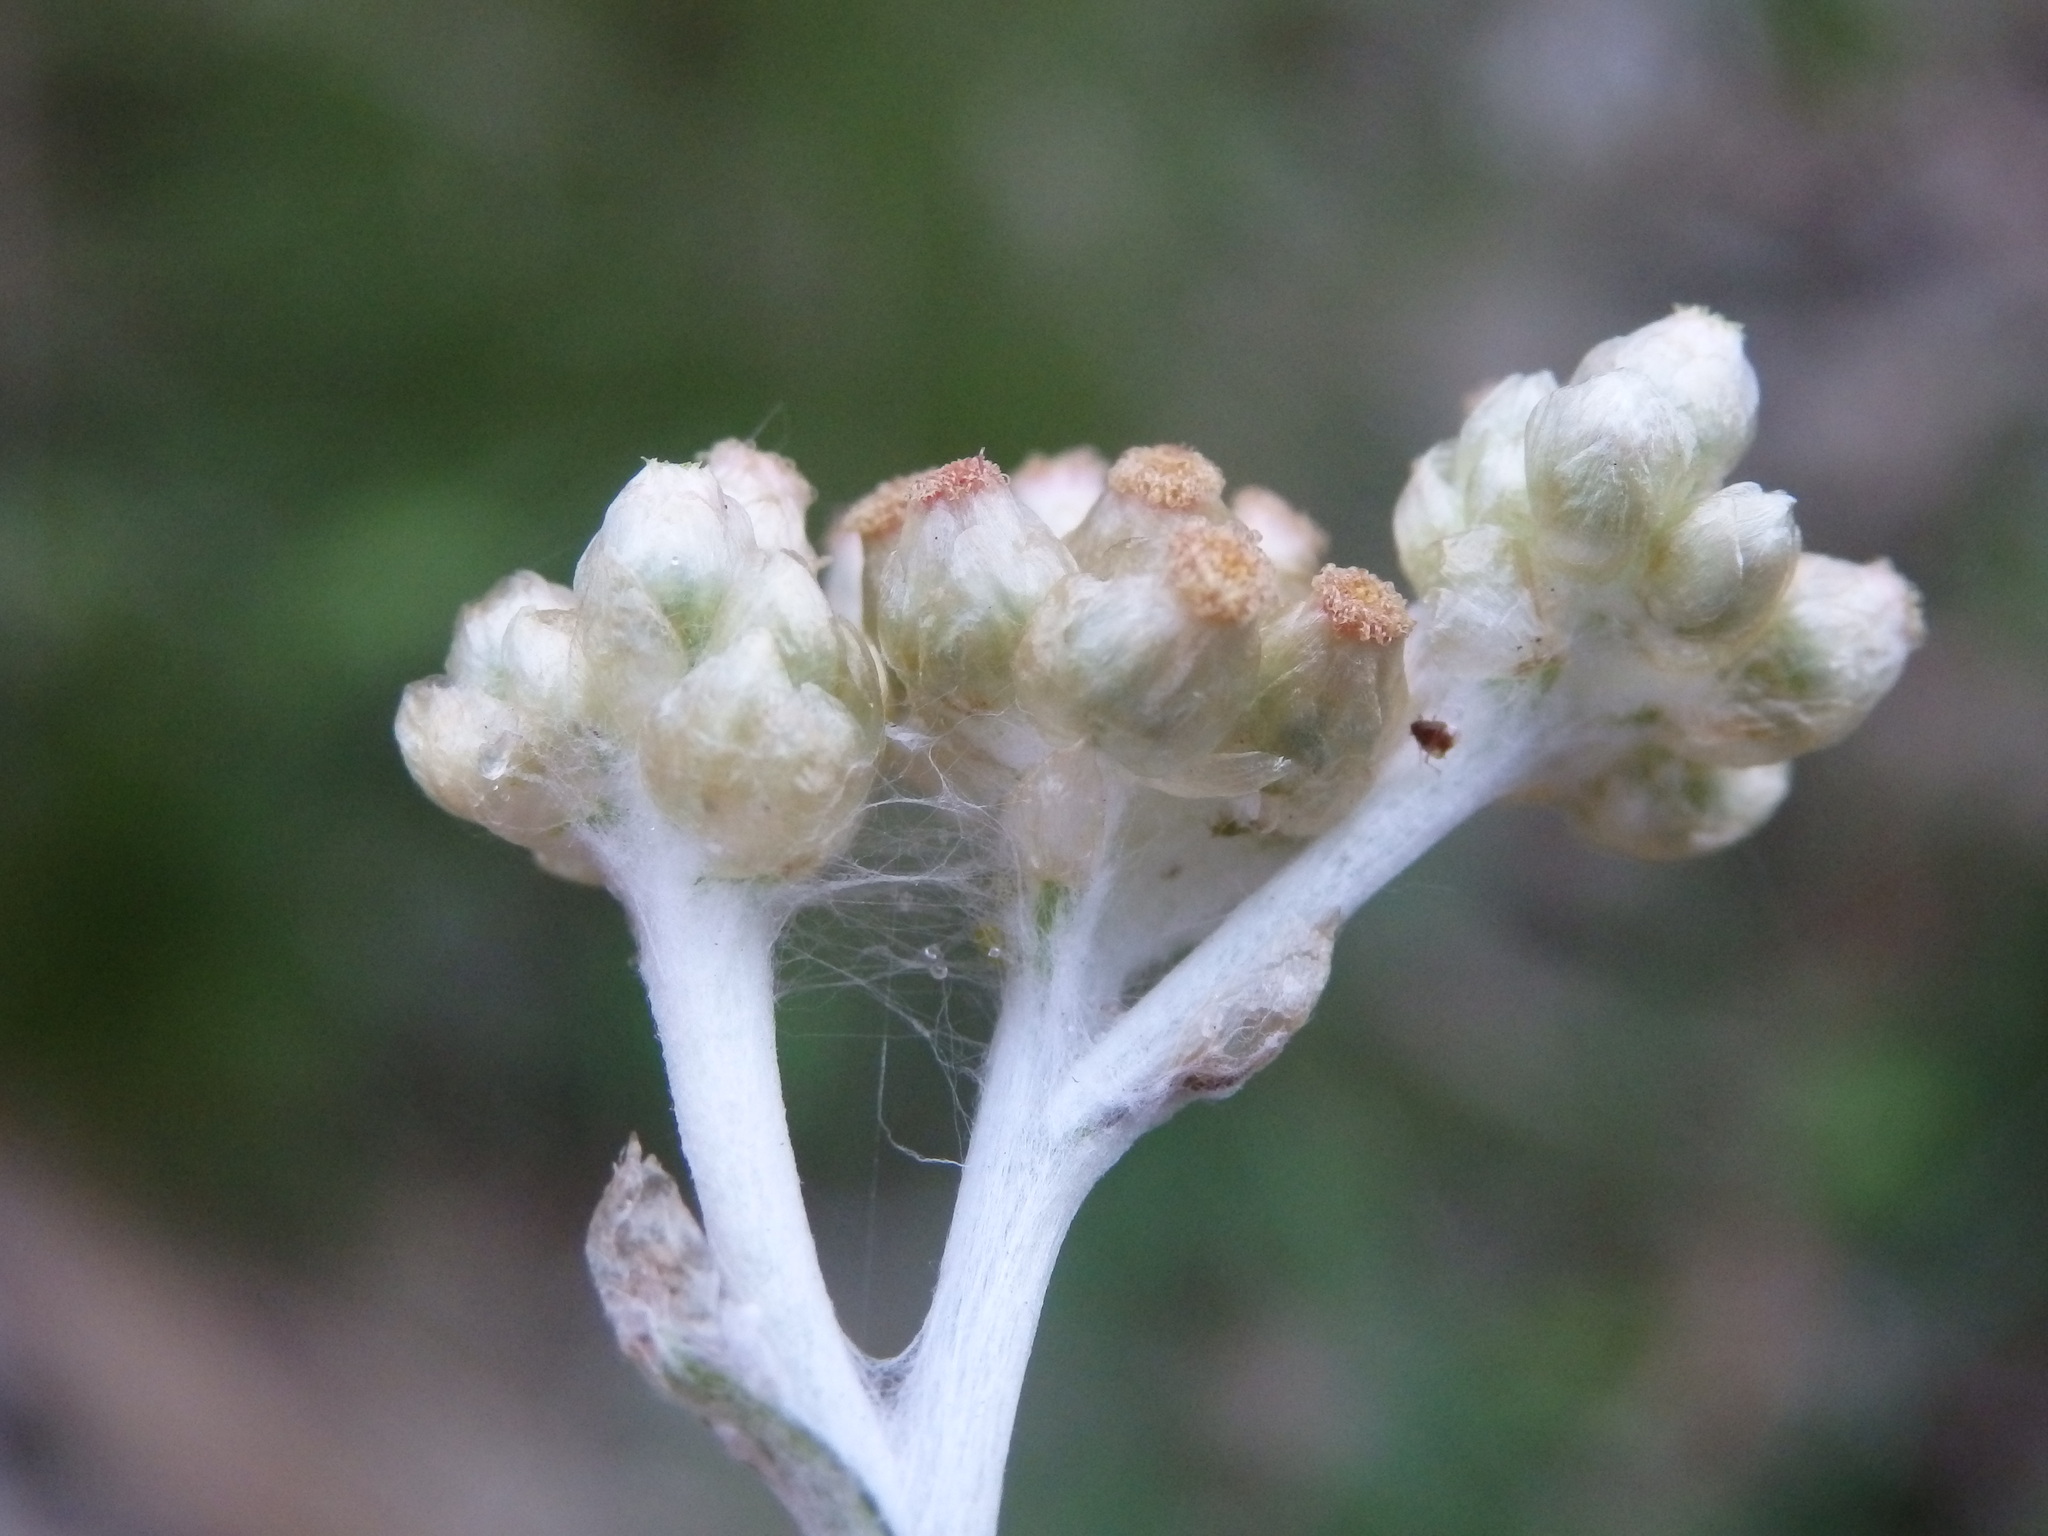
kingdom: Plantae
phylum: Tracheophyta
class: Magnoliopsida
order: Asterales
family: Asteraceae
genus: Helichrysum
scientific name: Helichrysum luteoalbum
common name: Daisy
